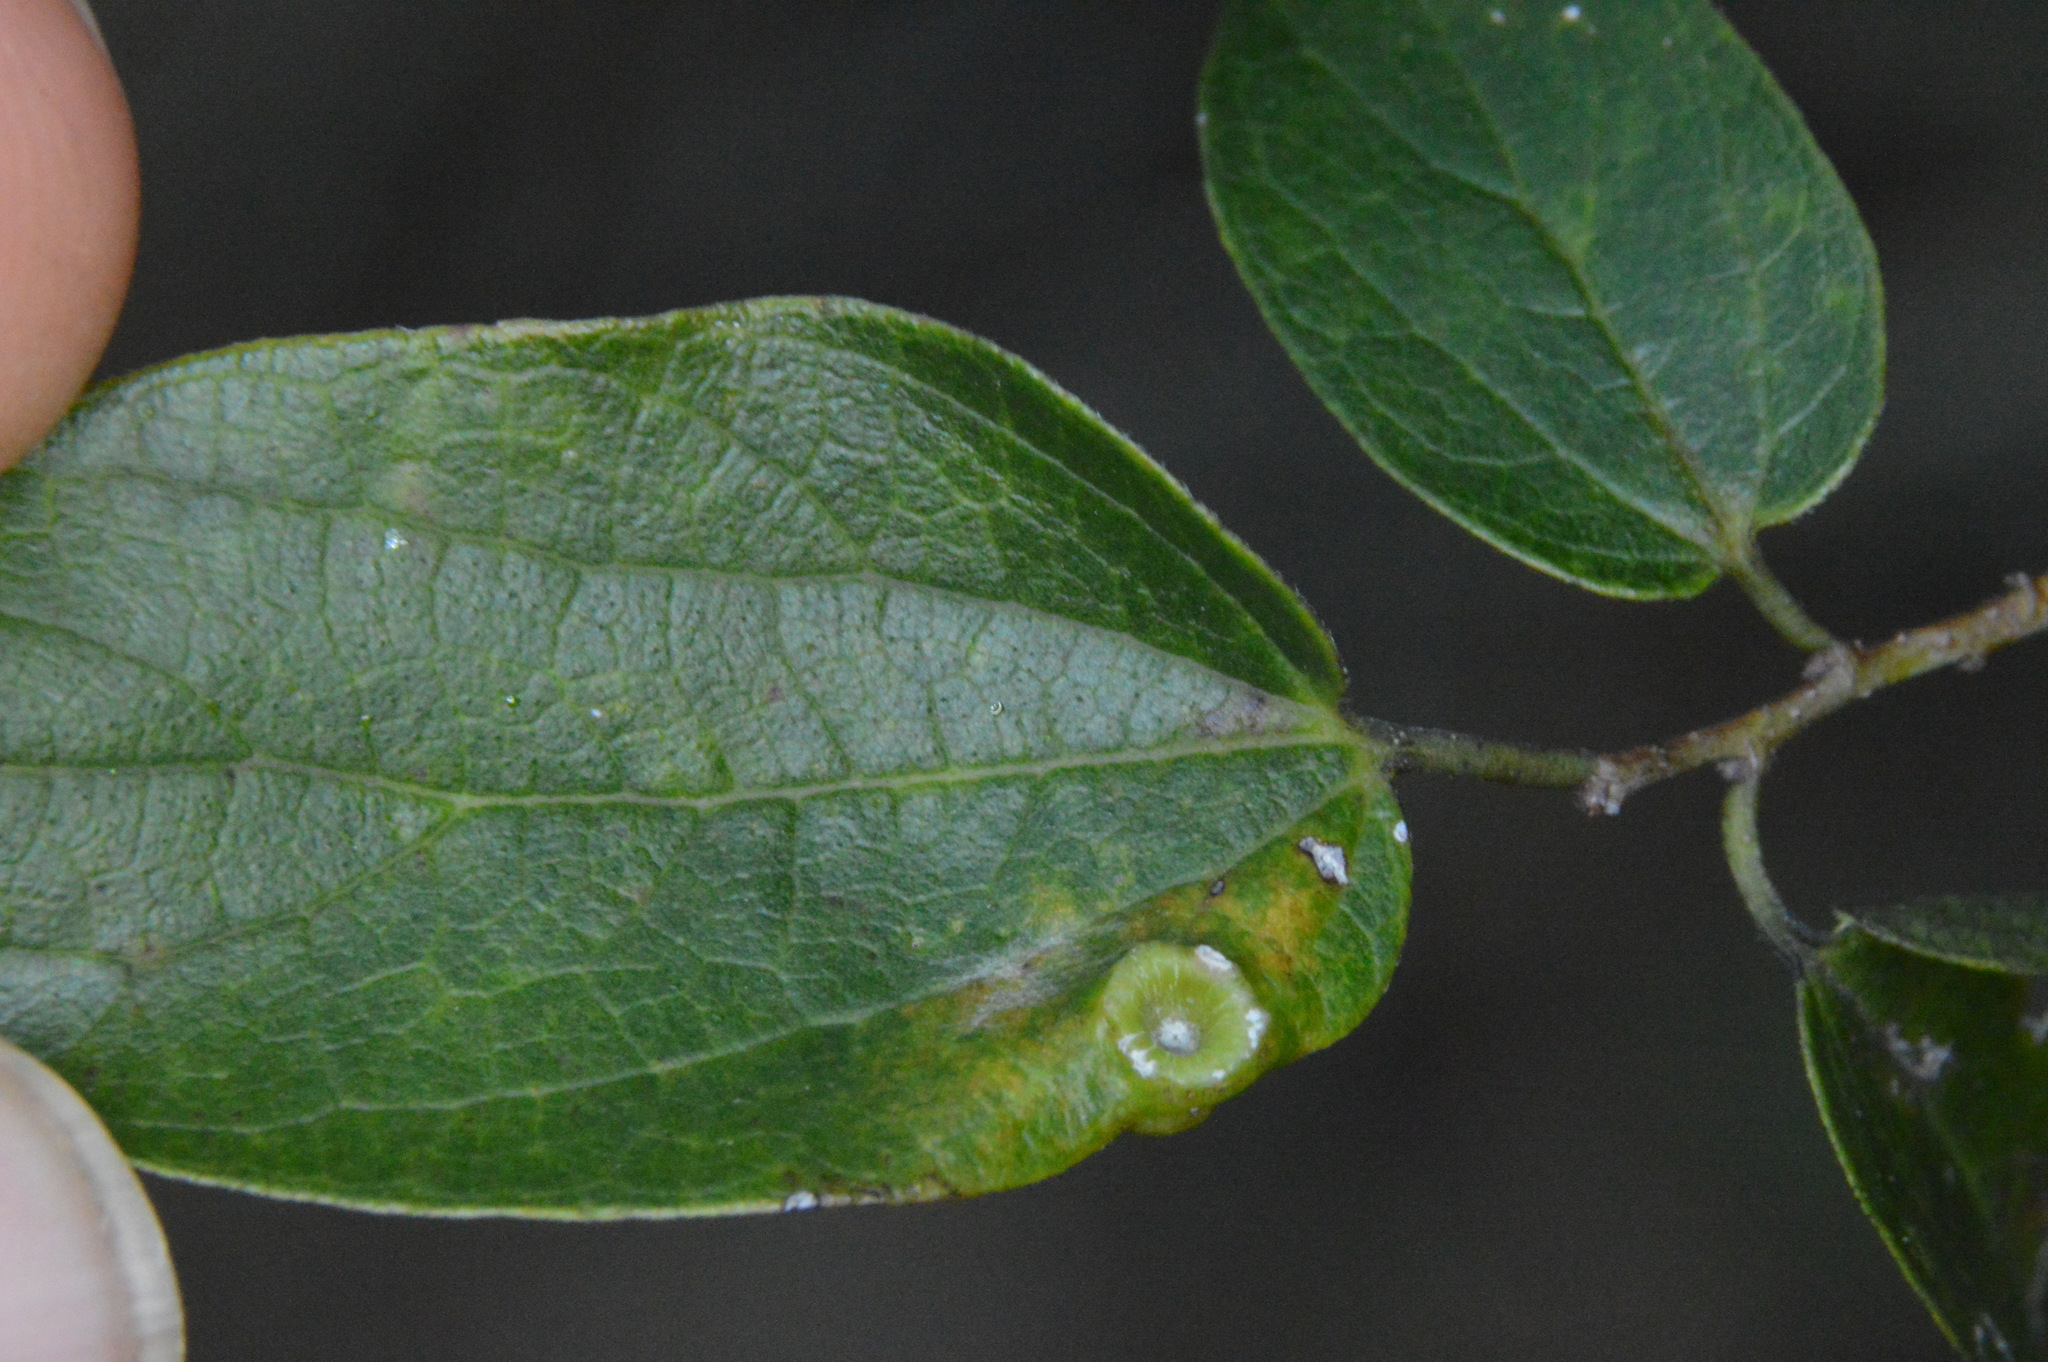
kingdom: Animalia
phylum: Arthropoda
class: Insecta
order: Hemiptera
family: Aphalaridae
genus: Pachypsylla
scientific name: Pachypsylla celtidismamma
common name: Hackberry nipplegall psyllid
